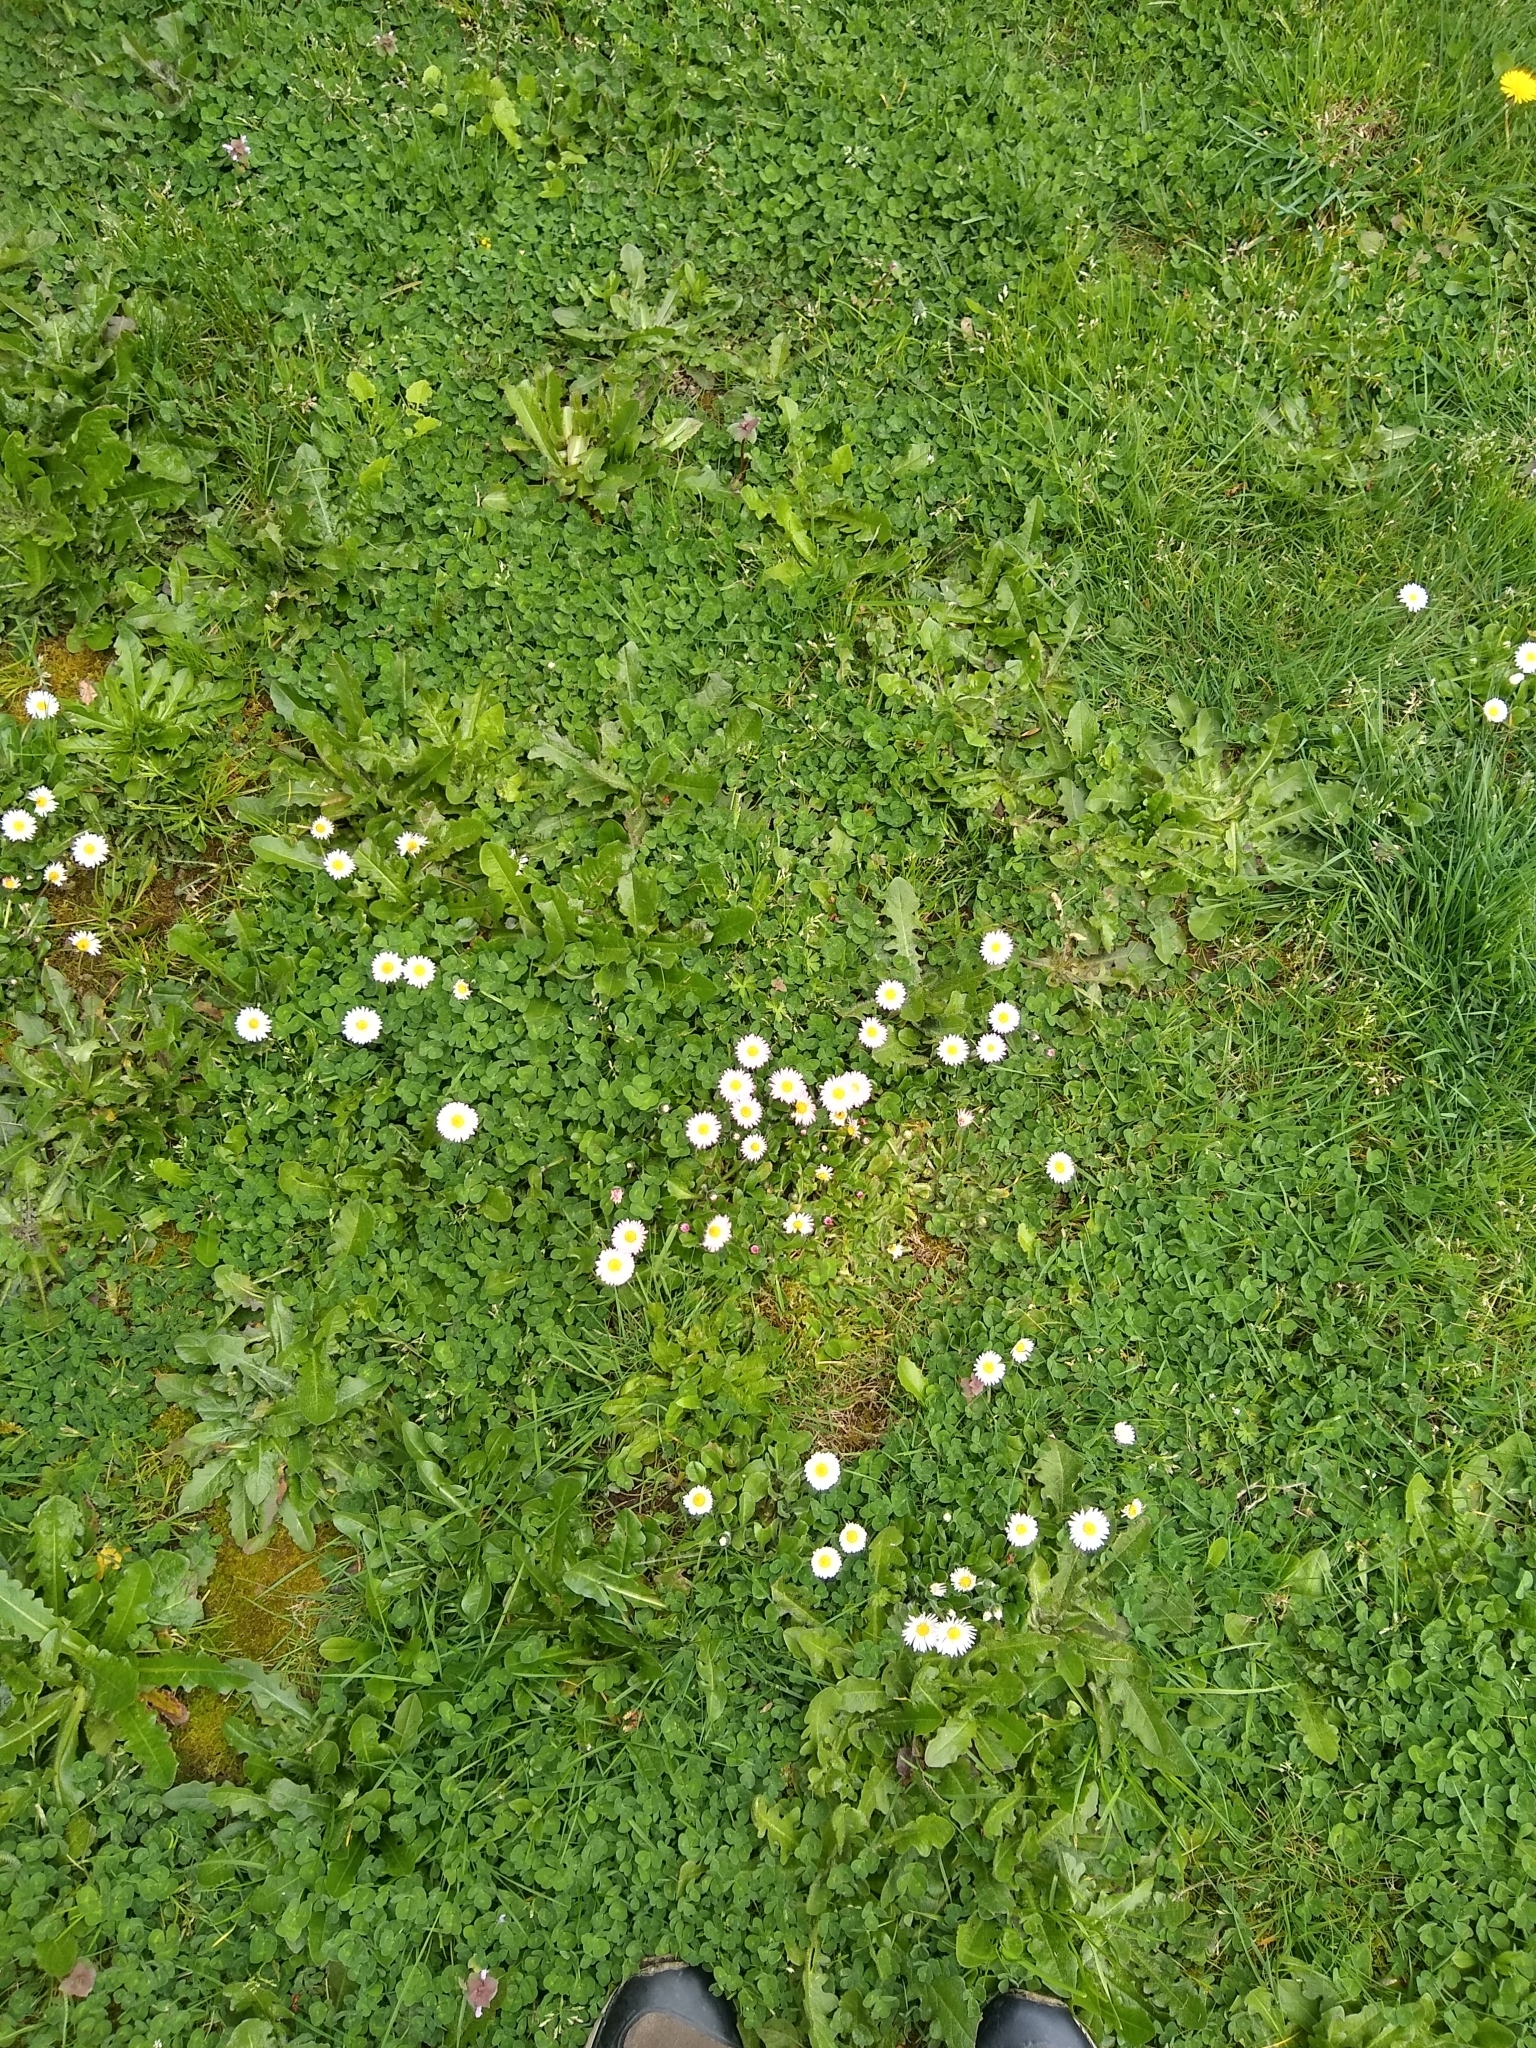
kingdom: Plantae
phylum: Tracheophyta
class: Magnoliopsida
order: Asterales
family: Asteraceae
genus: Bellis
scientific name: Bellis perennis
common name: Lawndaisy
